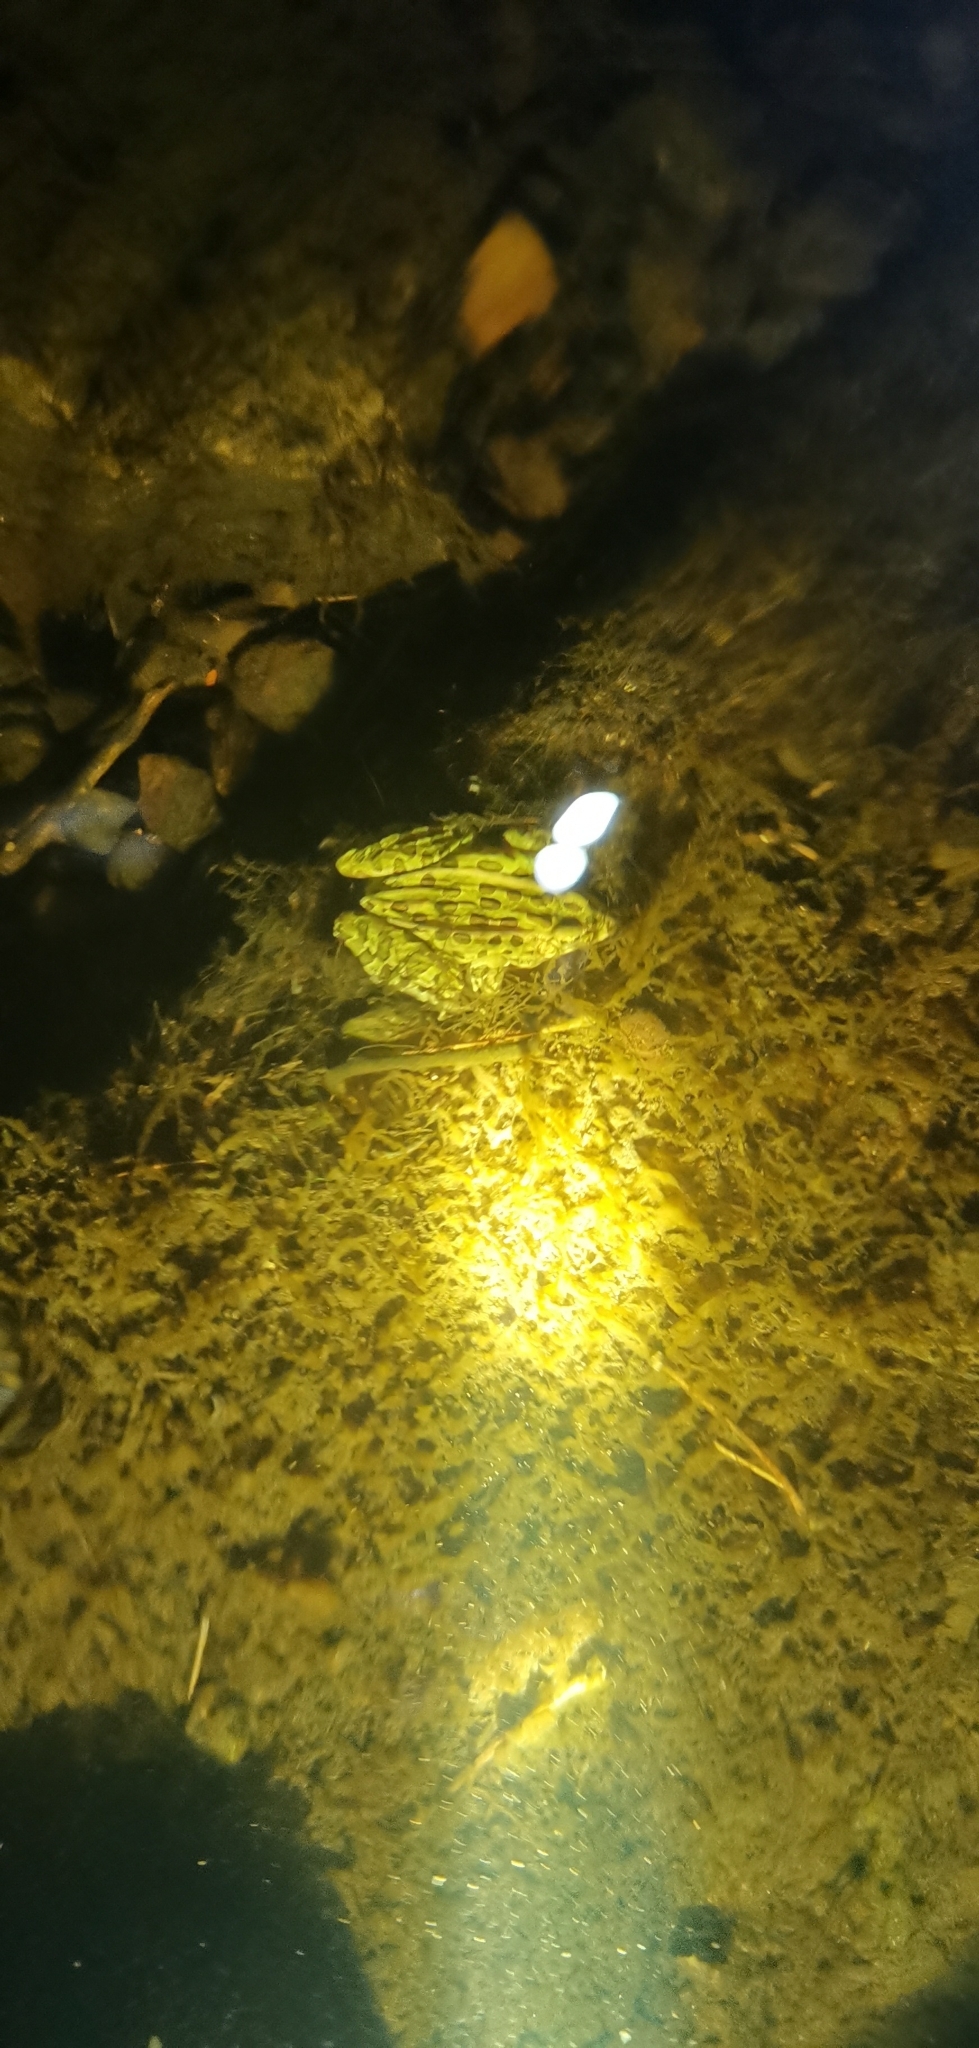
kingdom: Animalia
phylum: Chordata
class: Amphibia
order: Anura
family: Ranidae
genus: Lithobates
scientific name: Lithobates pipiens
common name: Northern leopard frog
